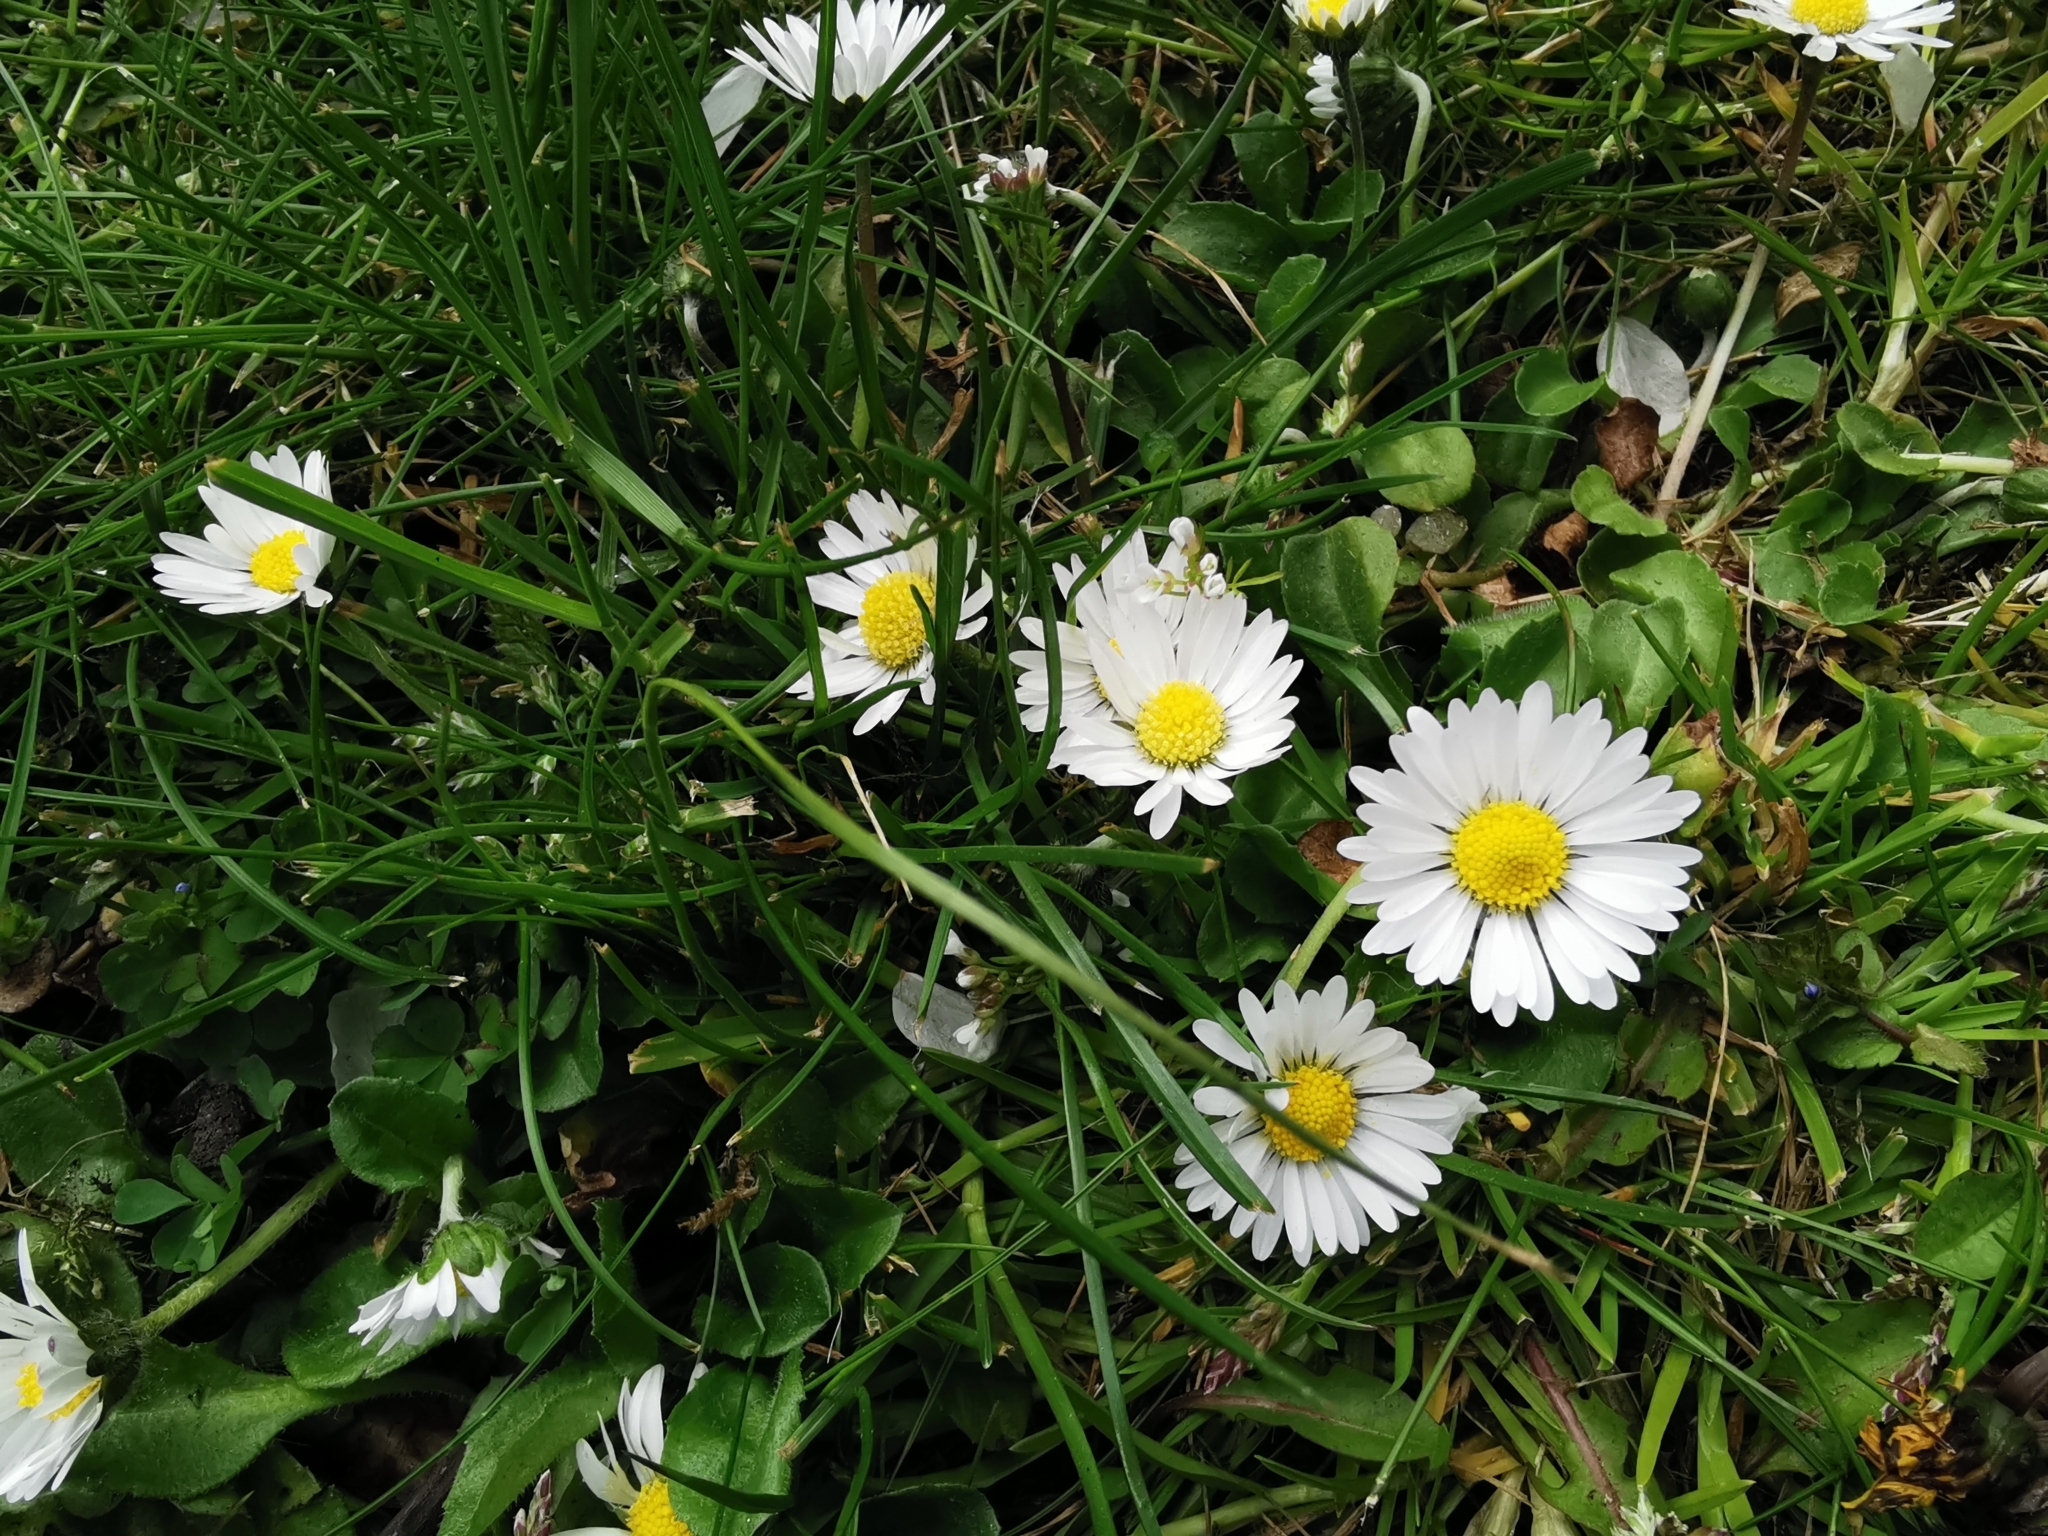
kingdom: Plantae
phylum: Tracheophyta
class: Magnoliopsida
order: Asterales
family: Asteraceae
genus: Bellis
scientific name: Bellis perennis
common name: Lawndaisy
